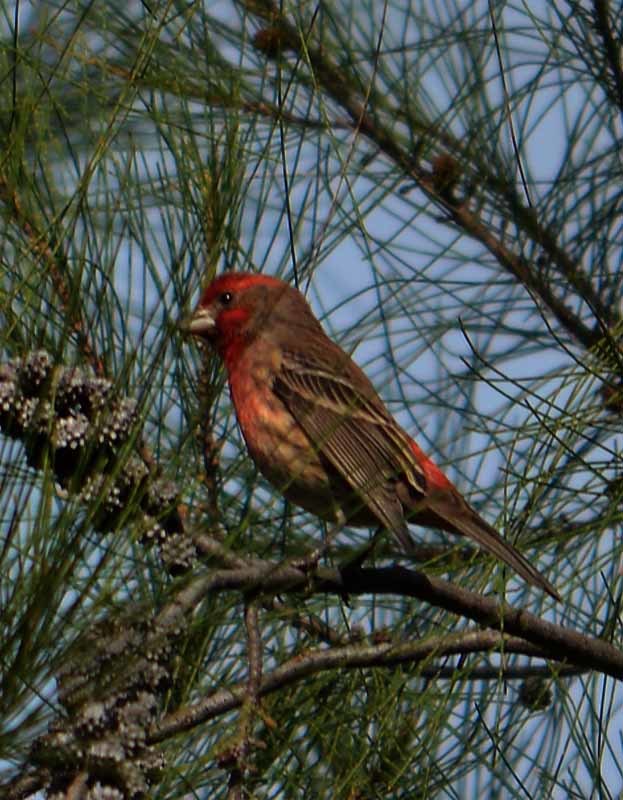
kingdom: Animalia
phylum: Chordata
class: Aves
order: Passeriformes
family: Fringillidae
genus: Haemorhous
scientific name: Haemorhous mexicanus
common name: House finch
